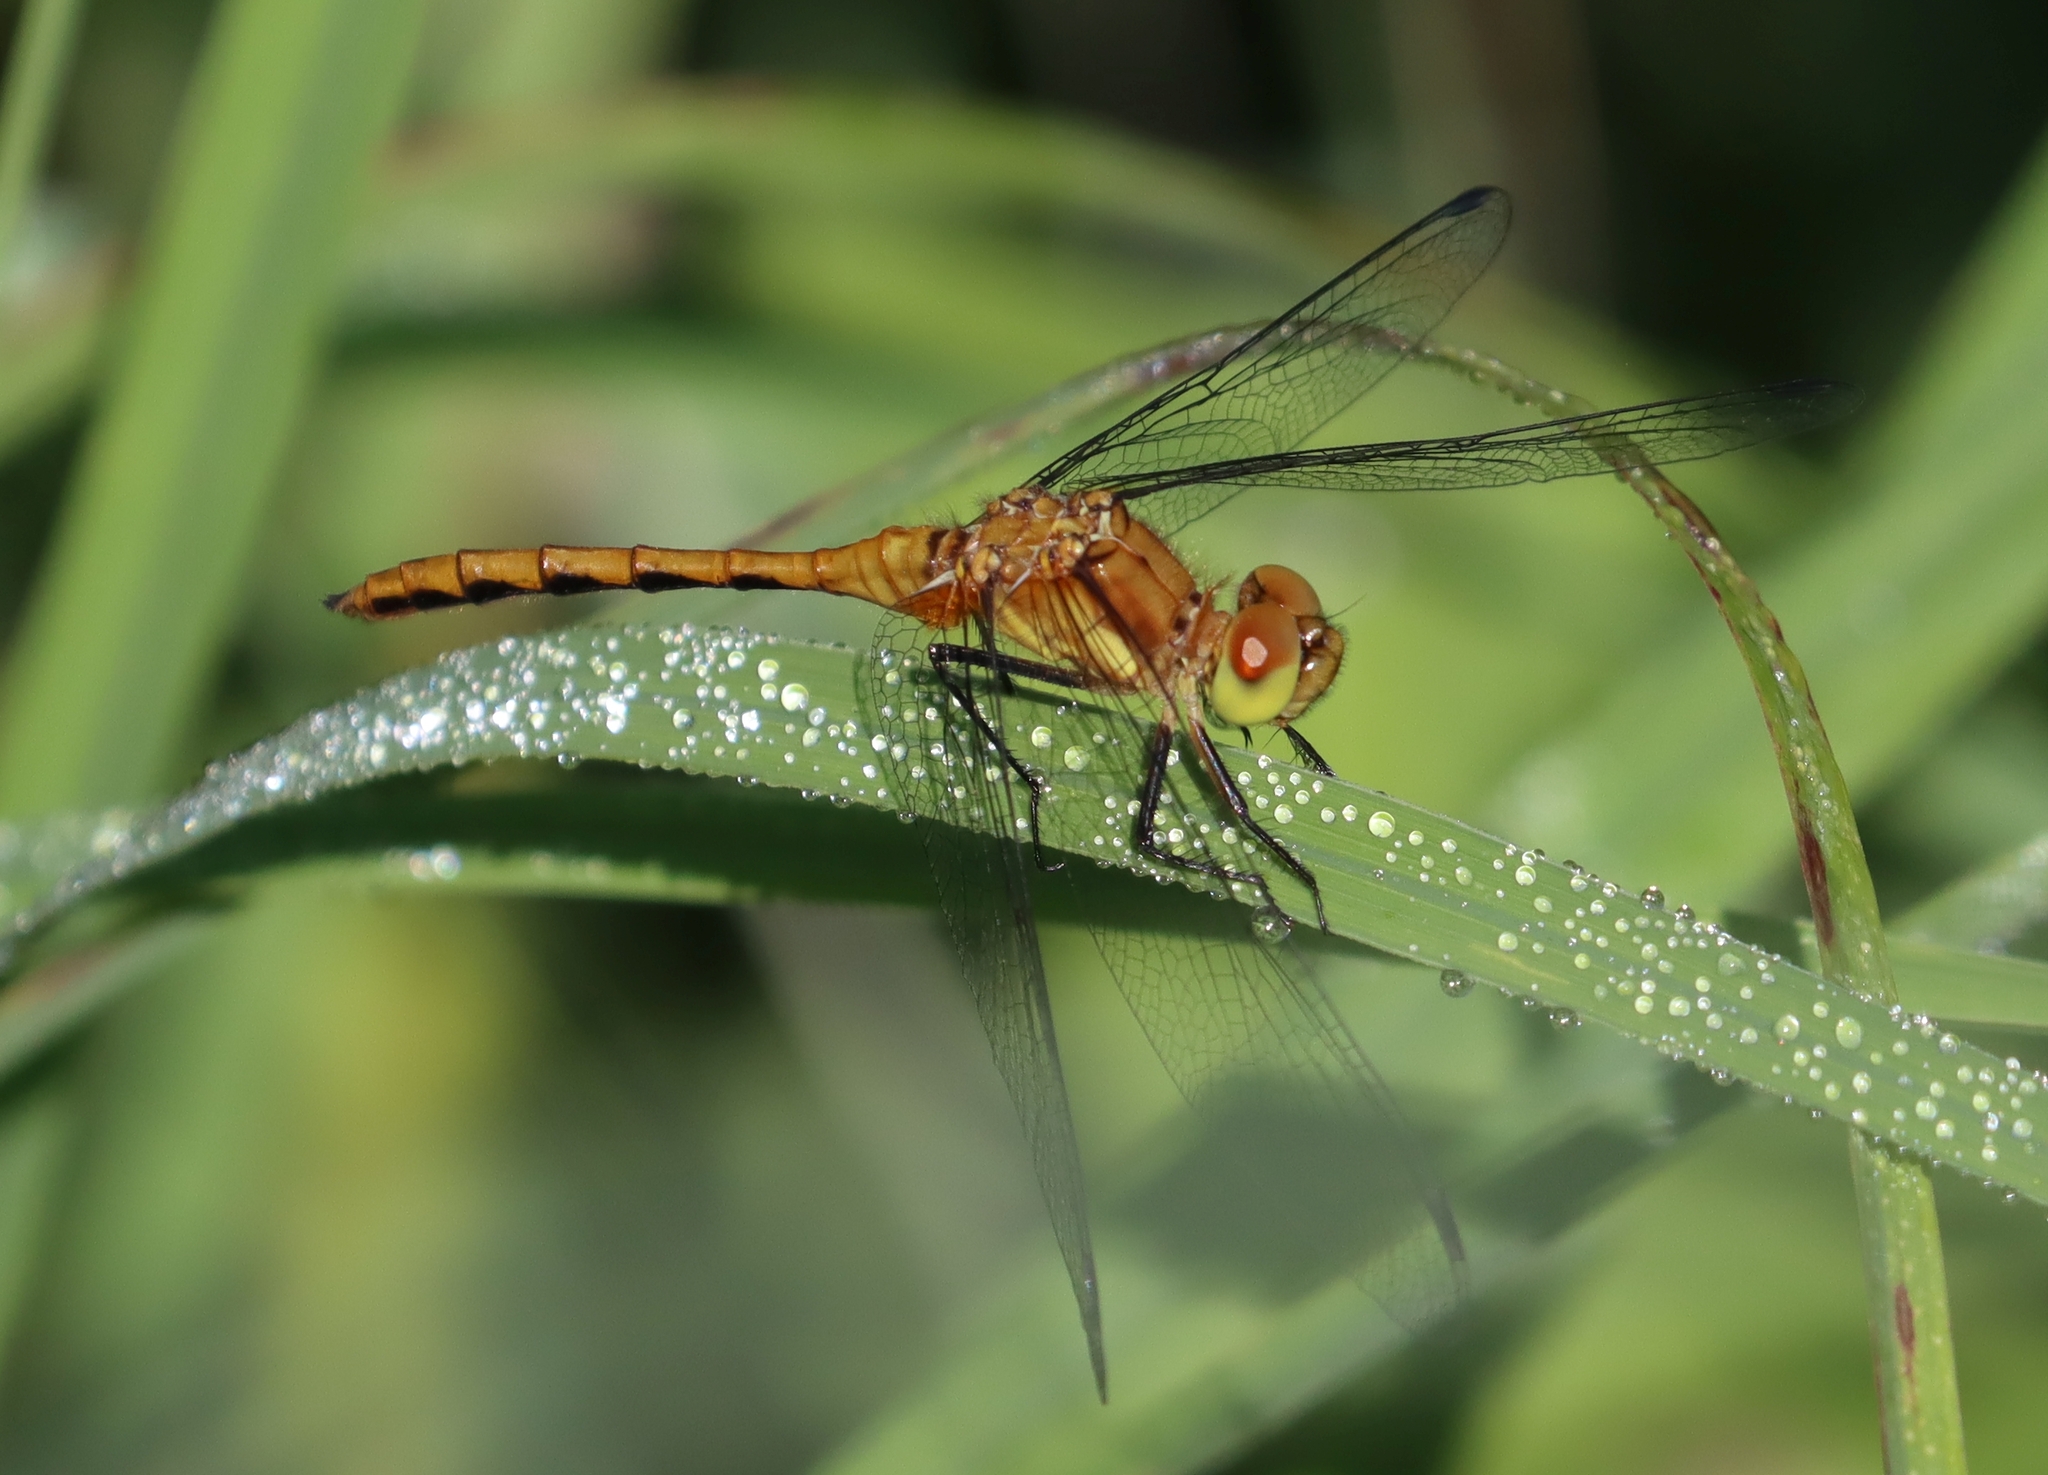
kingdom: Animalia
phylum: Arthropoda
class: Insecta
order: Odonata
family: Libellulidae
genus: Sympetrum
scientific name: Sympetrum
